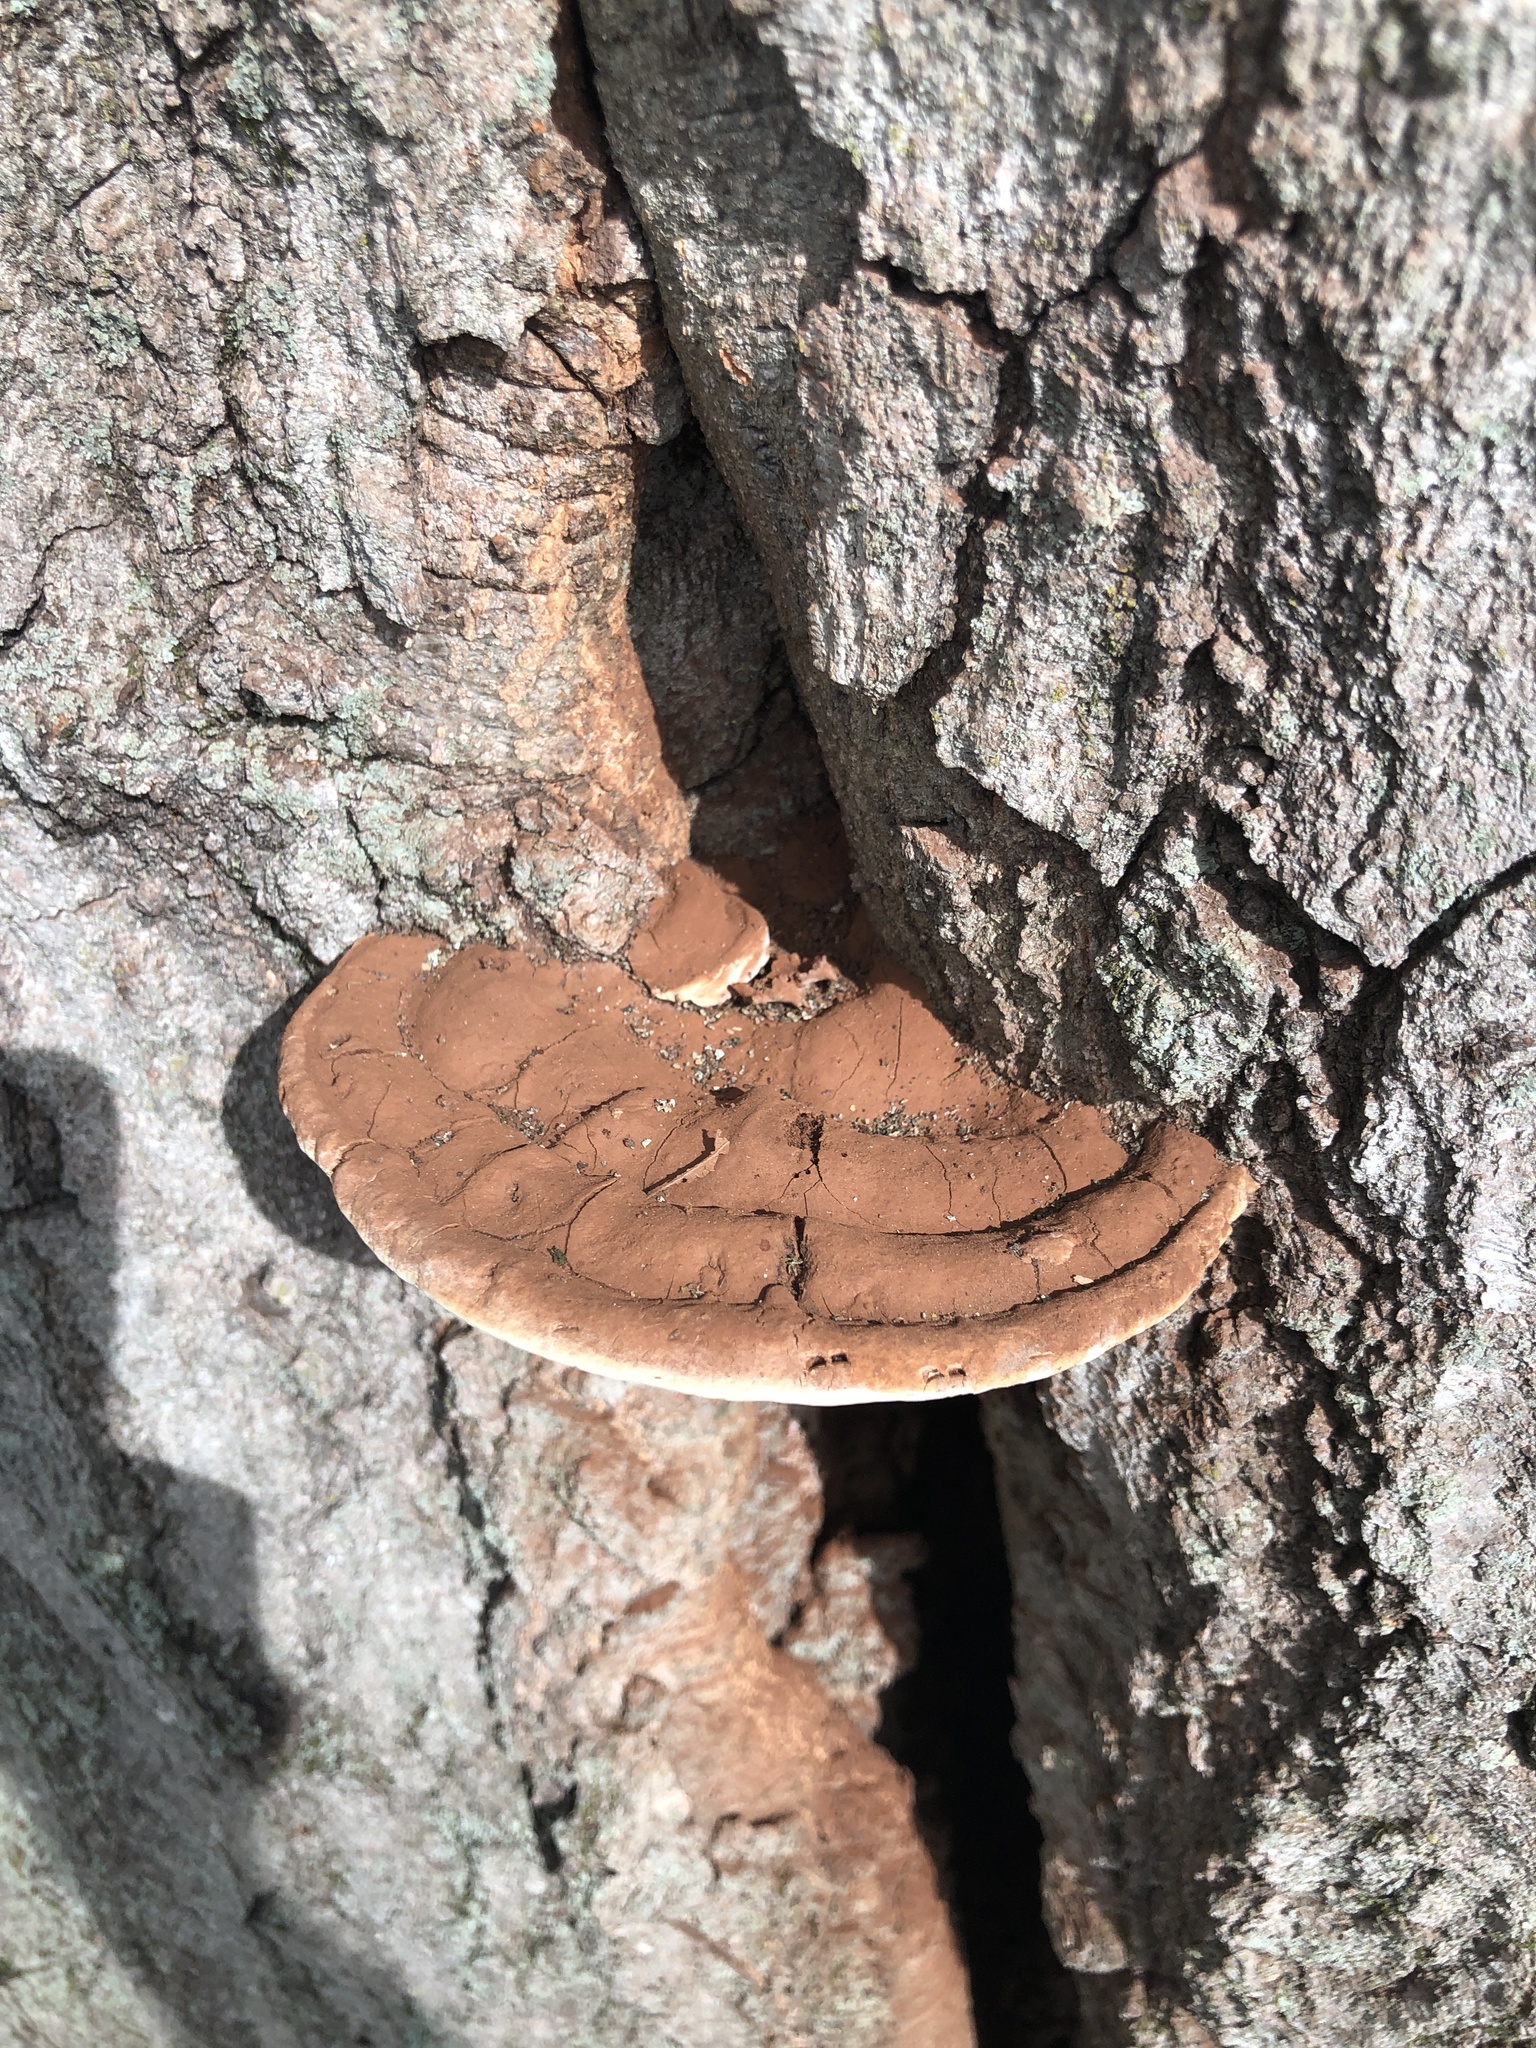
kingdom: Fungi
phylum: Basidiomycota
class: Agaricomycetes
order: Polyporales
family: Polyporaceae
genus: Ganoderma
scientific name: Ganoderma applanatum
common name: Artist's bracket
